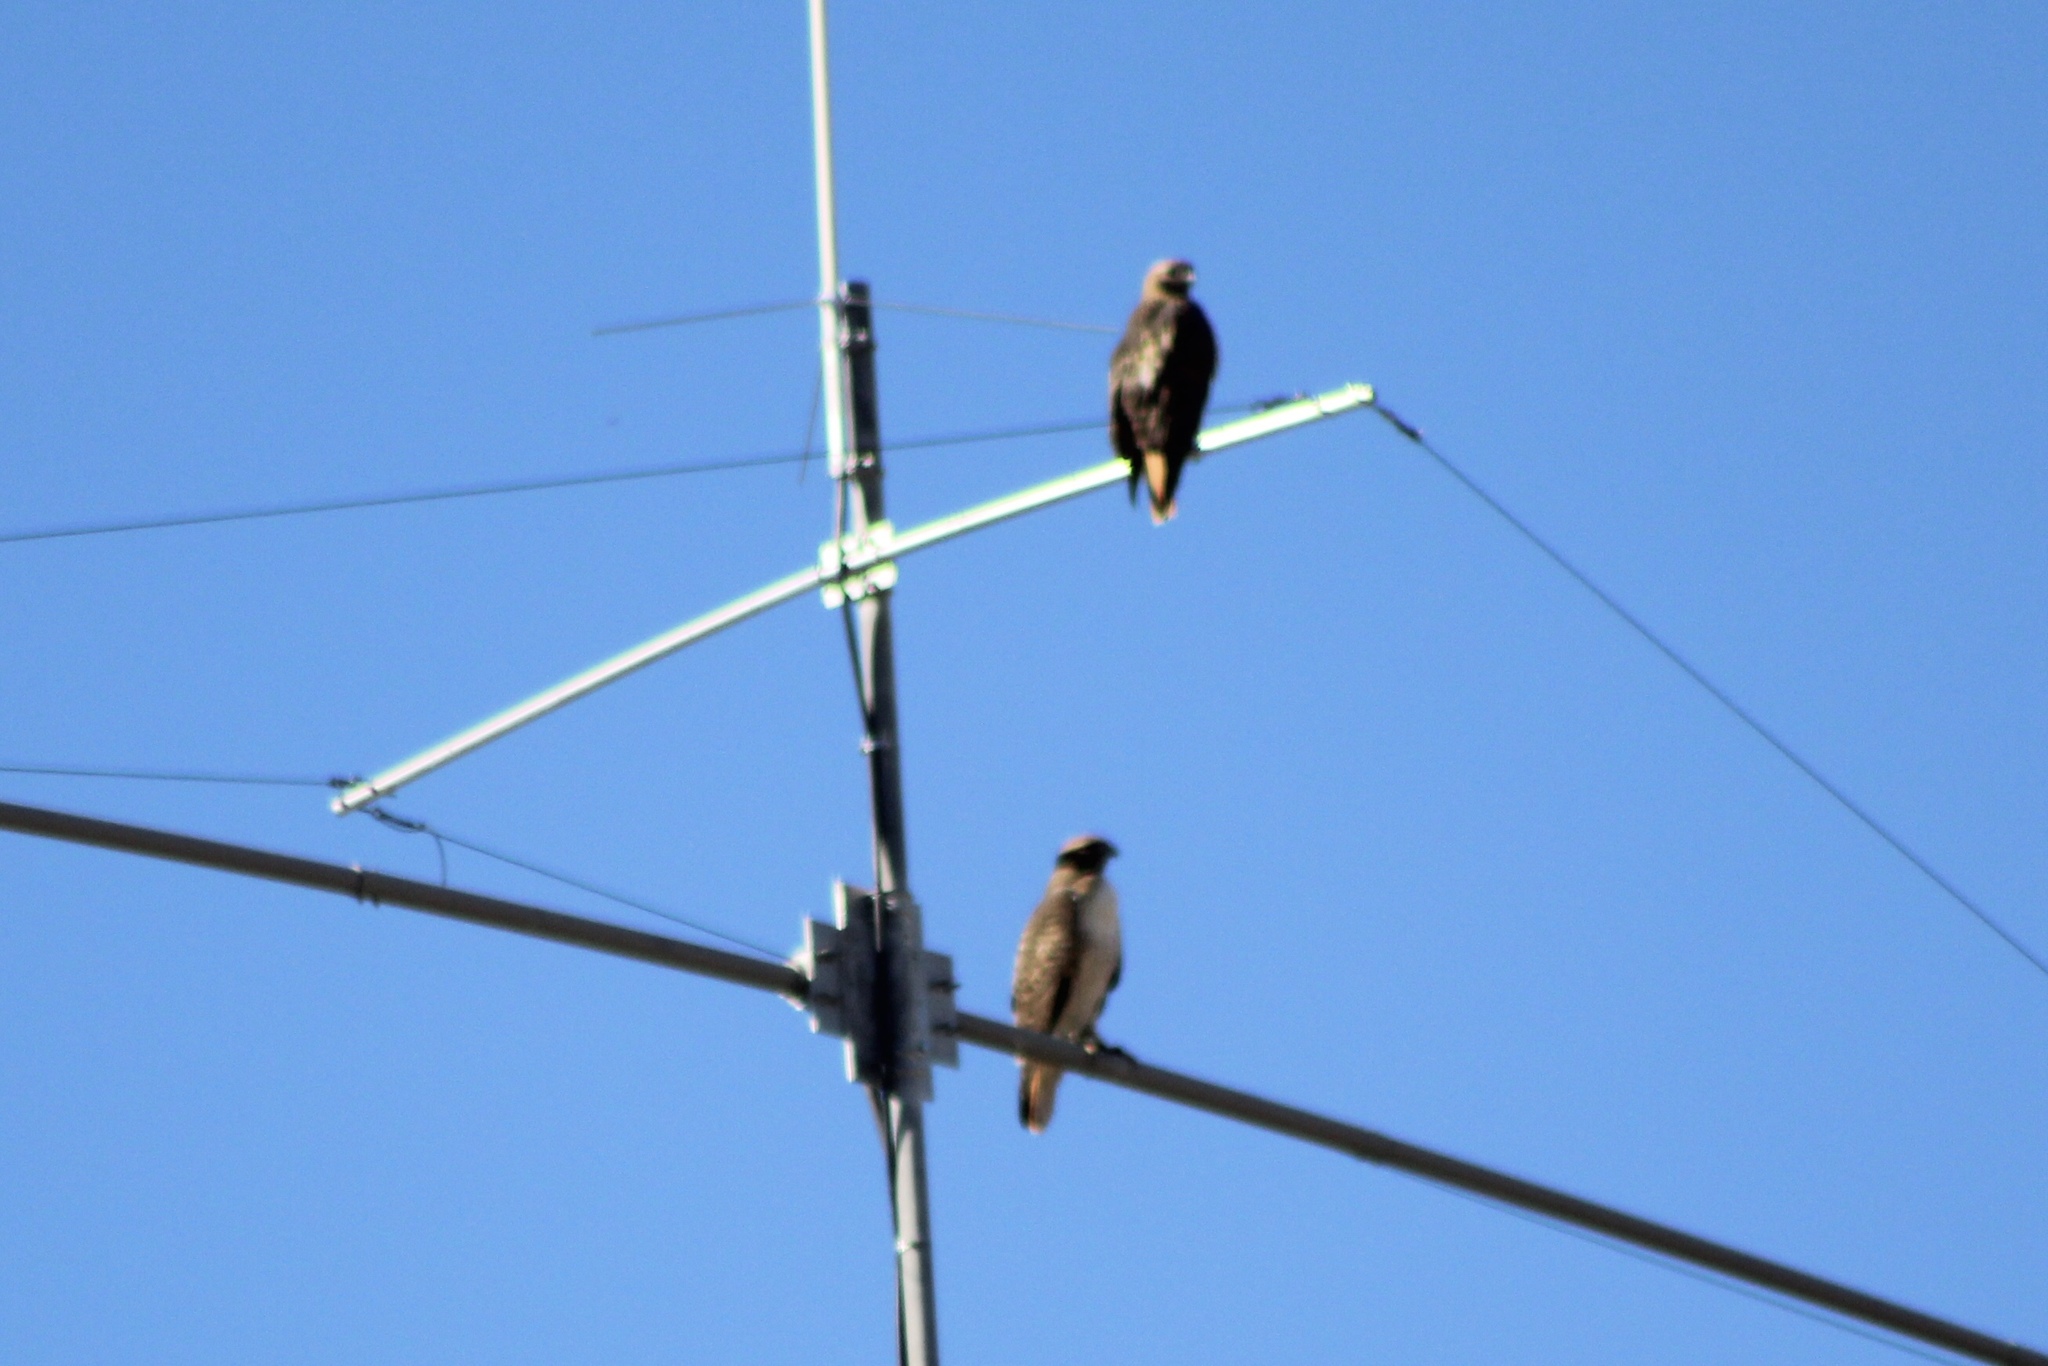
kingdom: Animalia
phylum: Chordata
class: Aves
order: Accipitriformes
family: Accipitridae
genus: Buteo
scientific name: Buteo jamaicensis
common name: Red-tailed hawk
